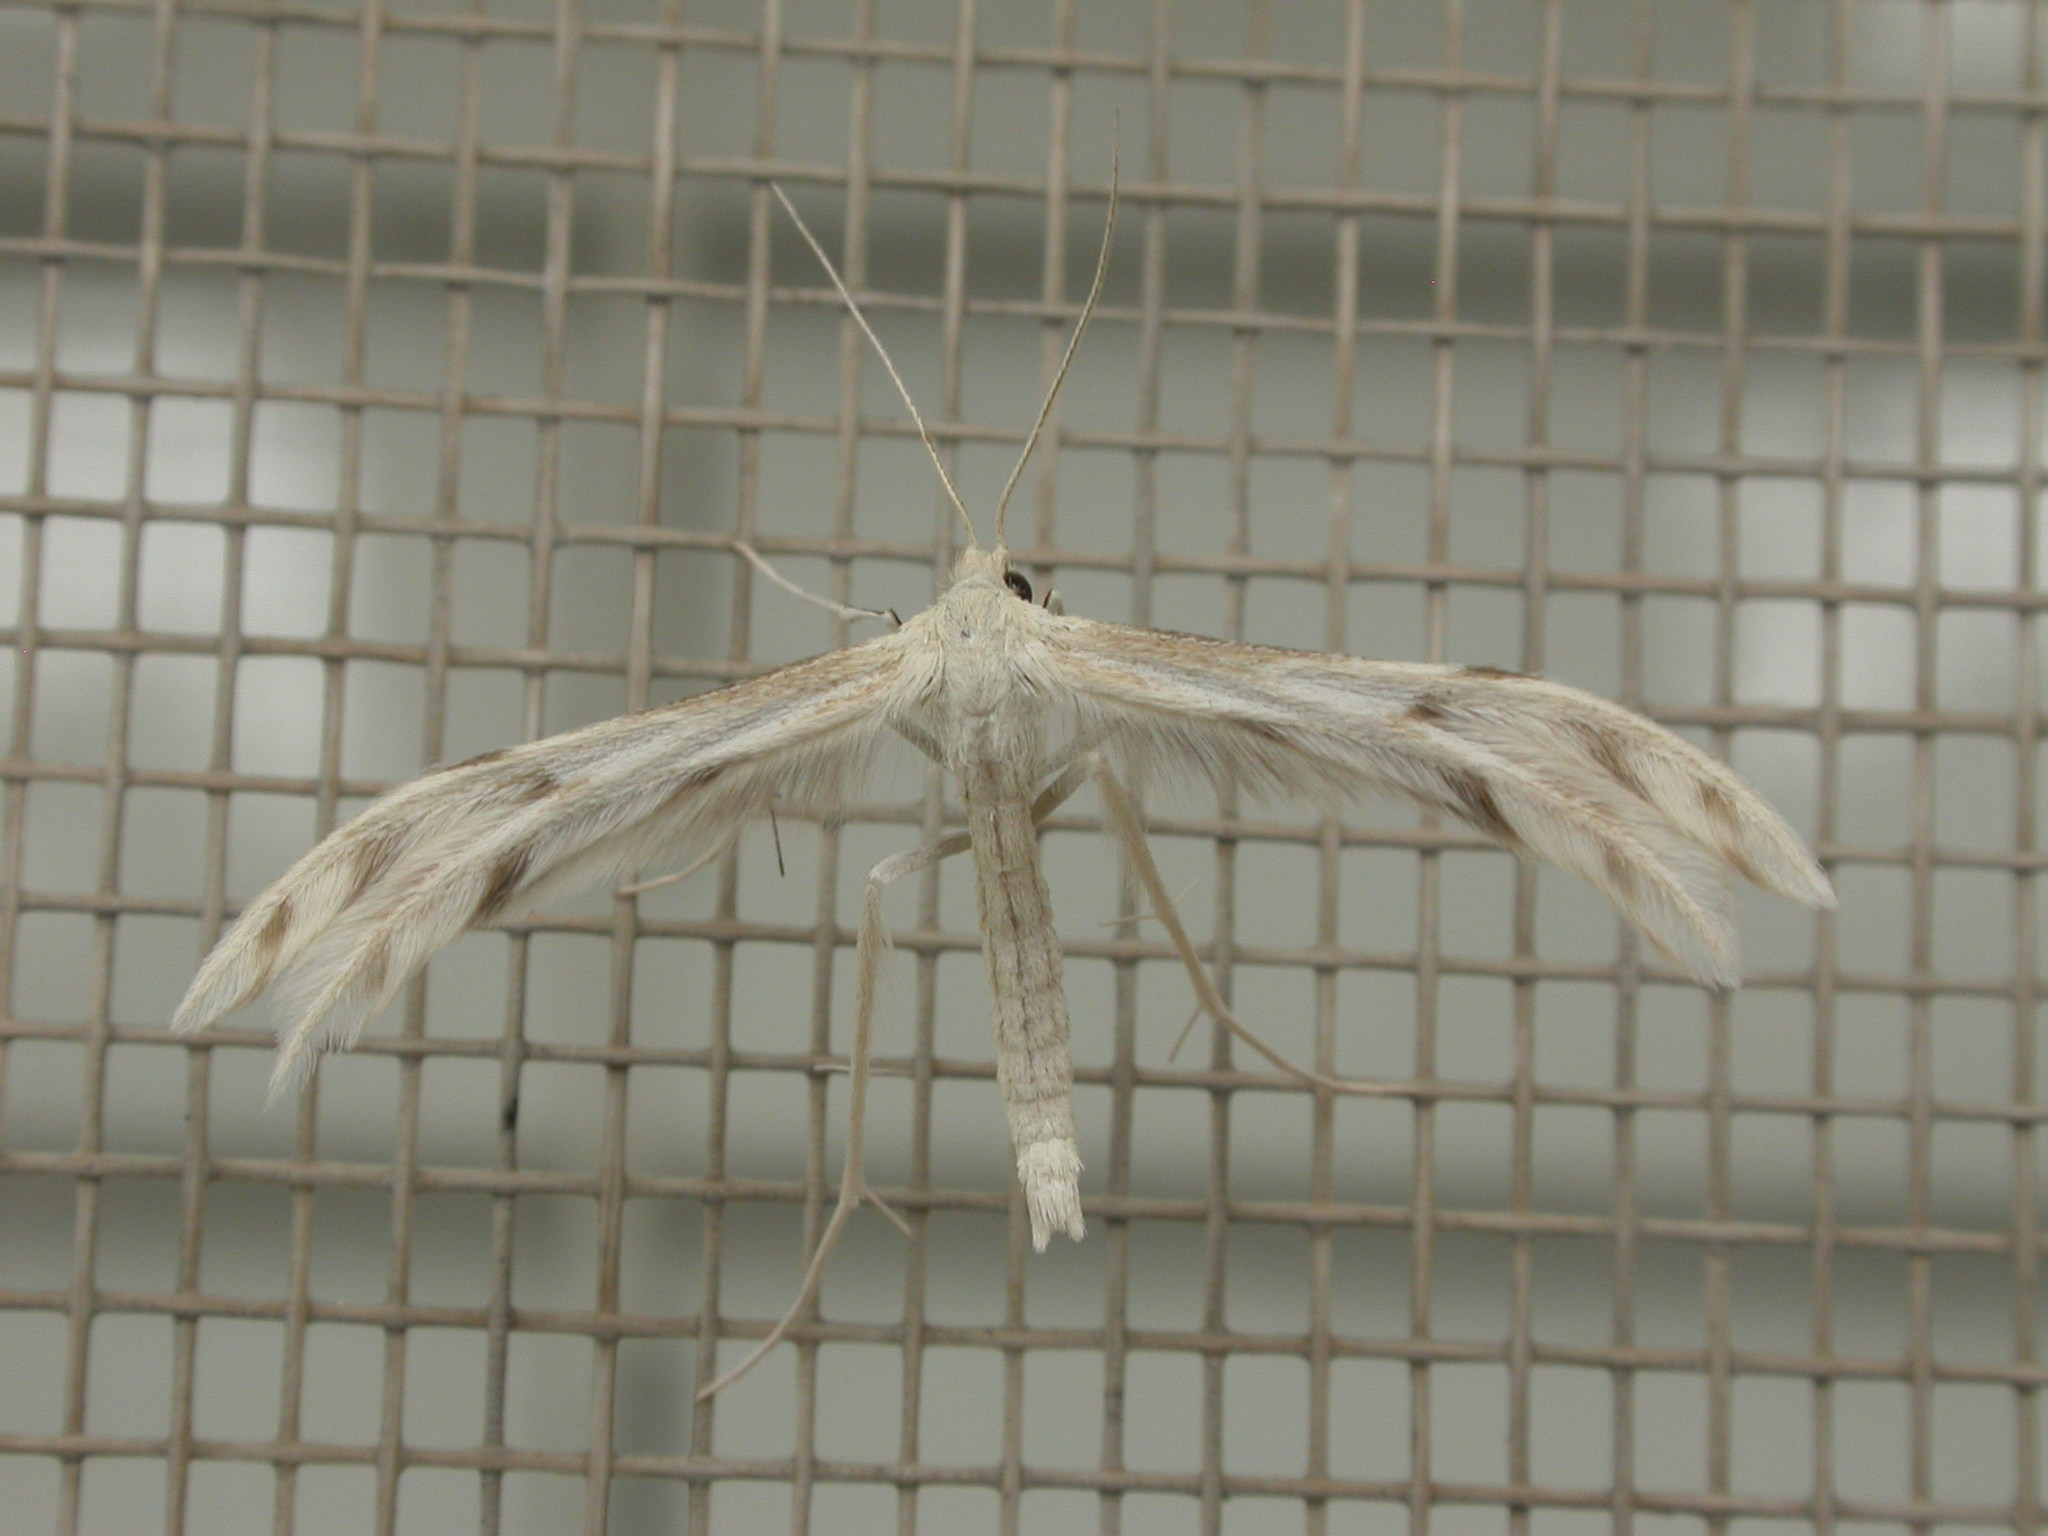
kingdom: Animalia
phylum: Arthropoda
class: Insecta
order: Lepidoptera
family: Pterophoridae
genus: Wheeleria
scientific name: Wheeleria spilodactylus
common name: Horehound plume
